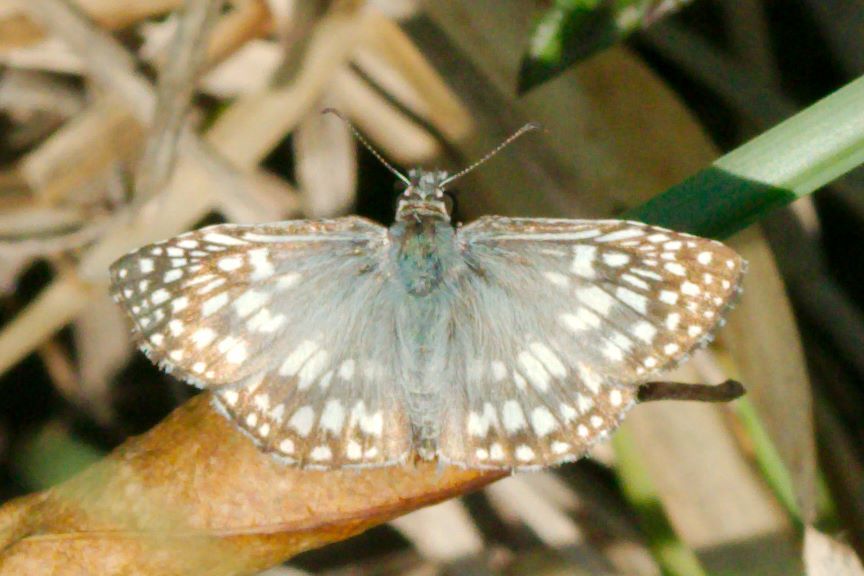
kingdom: Animalia
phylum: Arthropoda
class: Insecta
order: Lepidoptera
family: Hesperiidae
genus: Pyrgus
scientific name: Pyrgus oileus
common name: Tropical checkered-skipper
